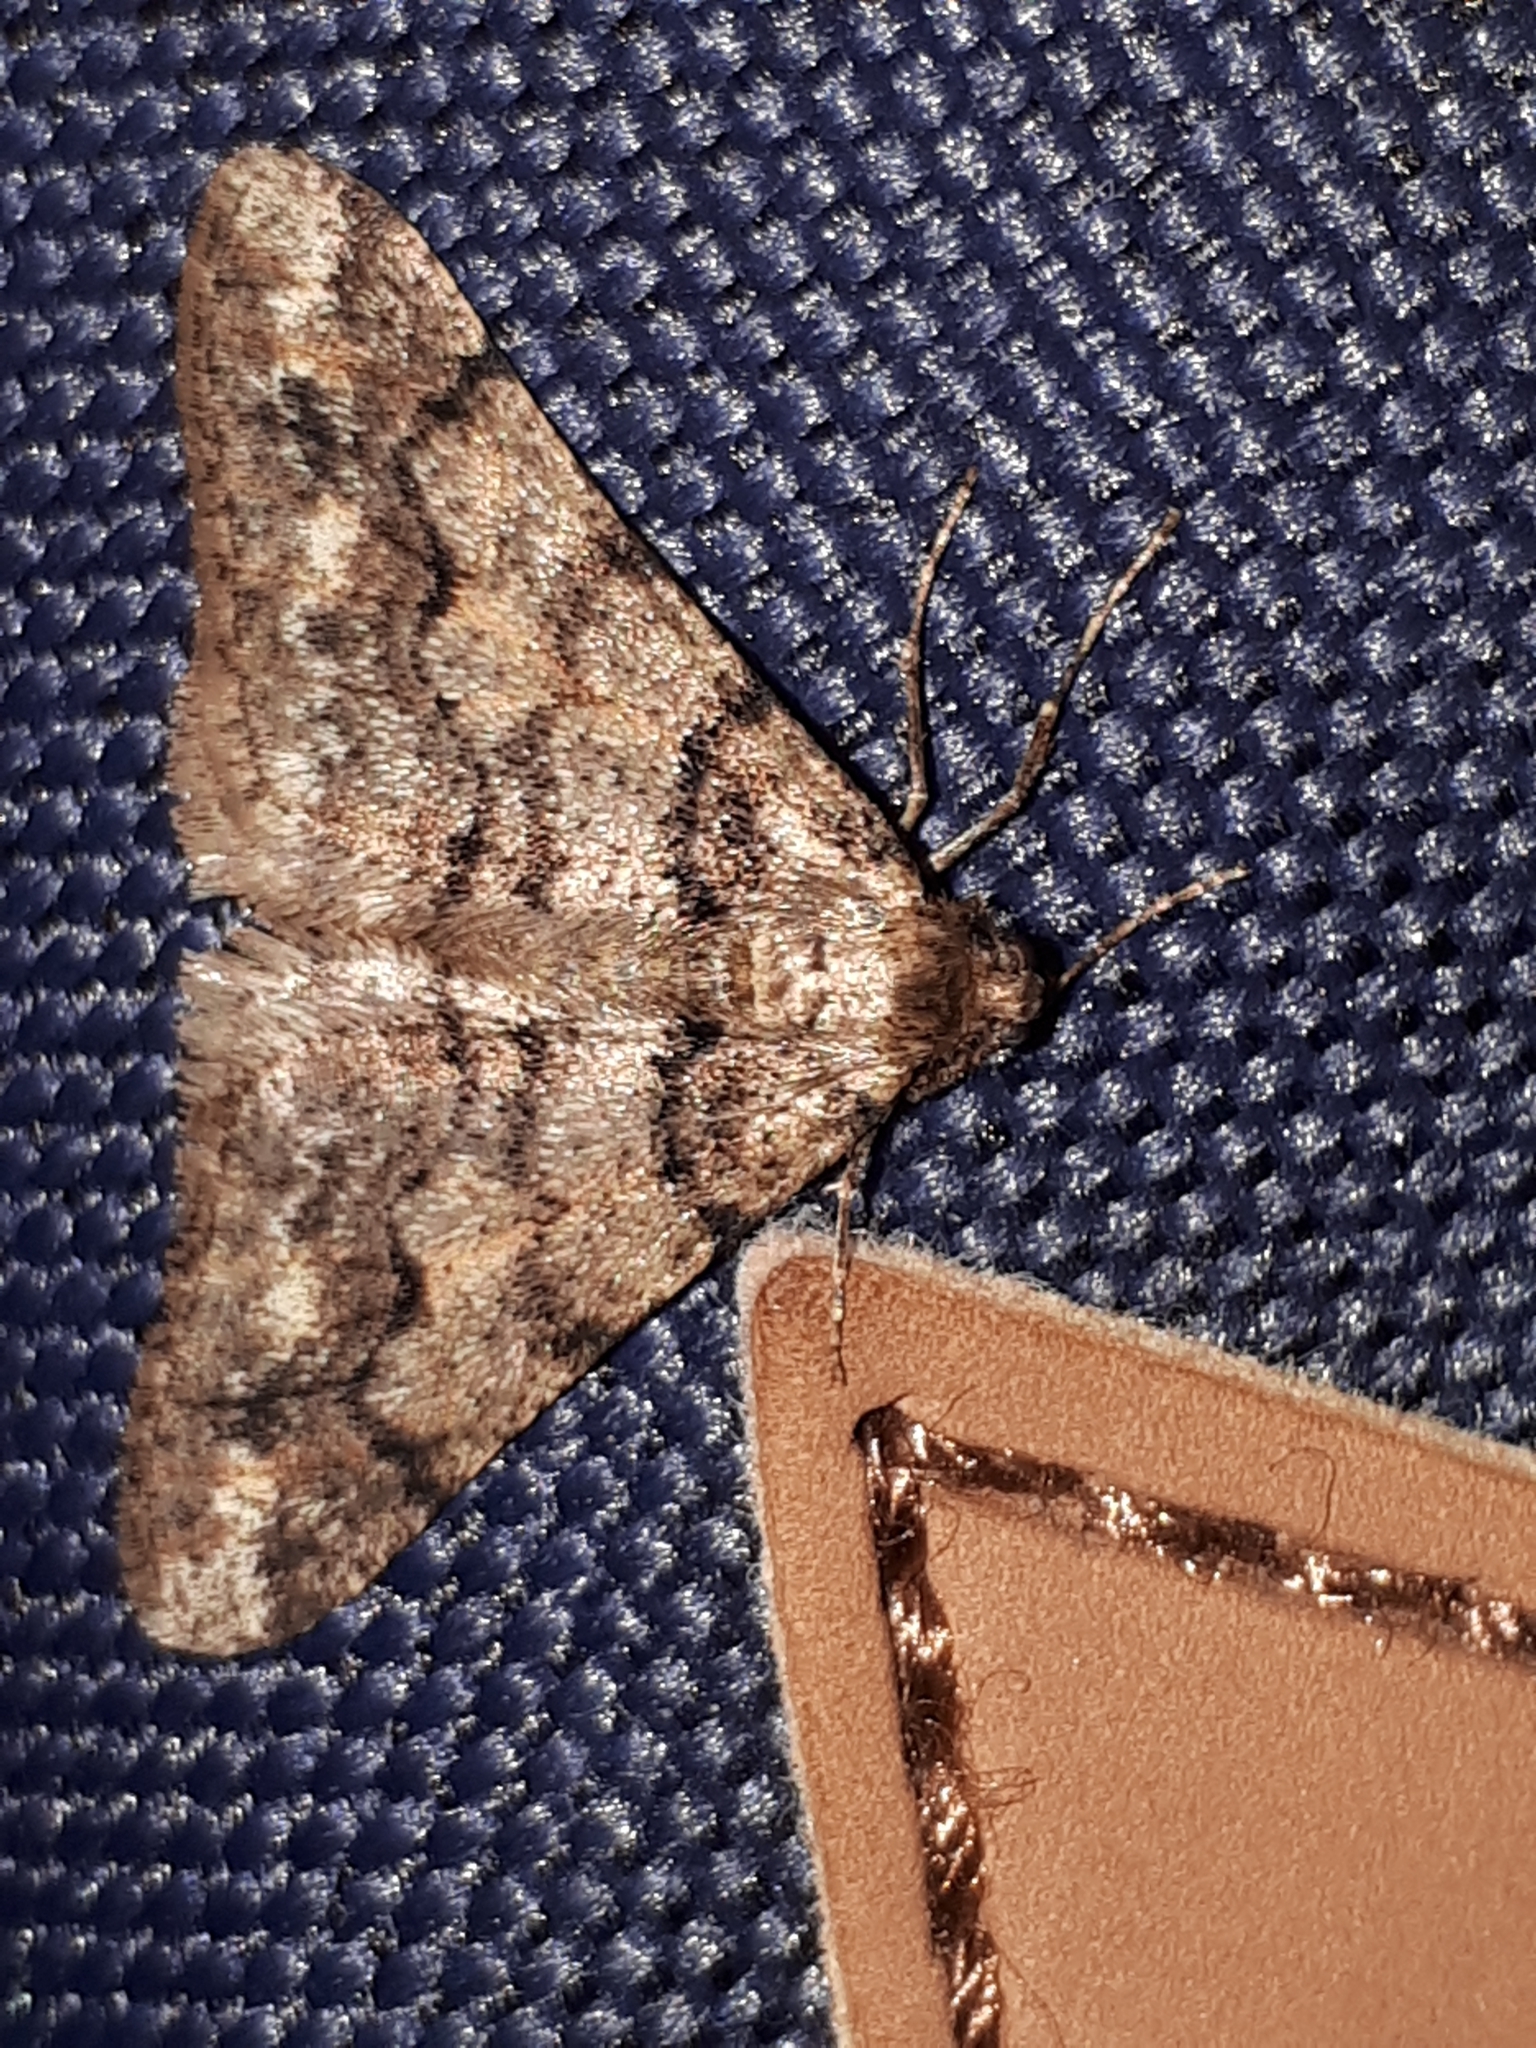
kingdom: Animalia
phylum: Arthropoda
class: Insecta
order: Lepidoptera
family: Geometridae
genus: Agriopis
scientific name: Agriopis leucophaearia
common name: Spring usher
